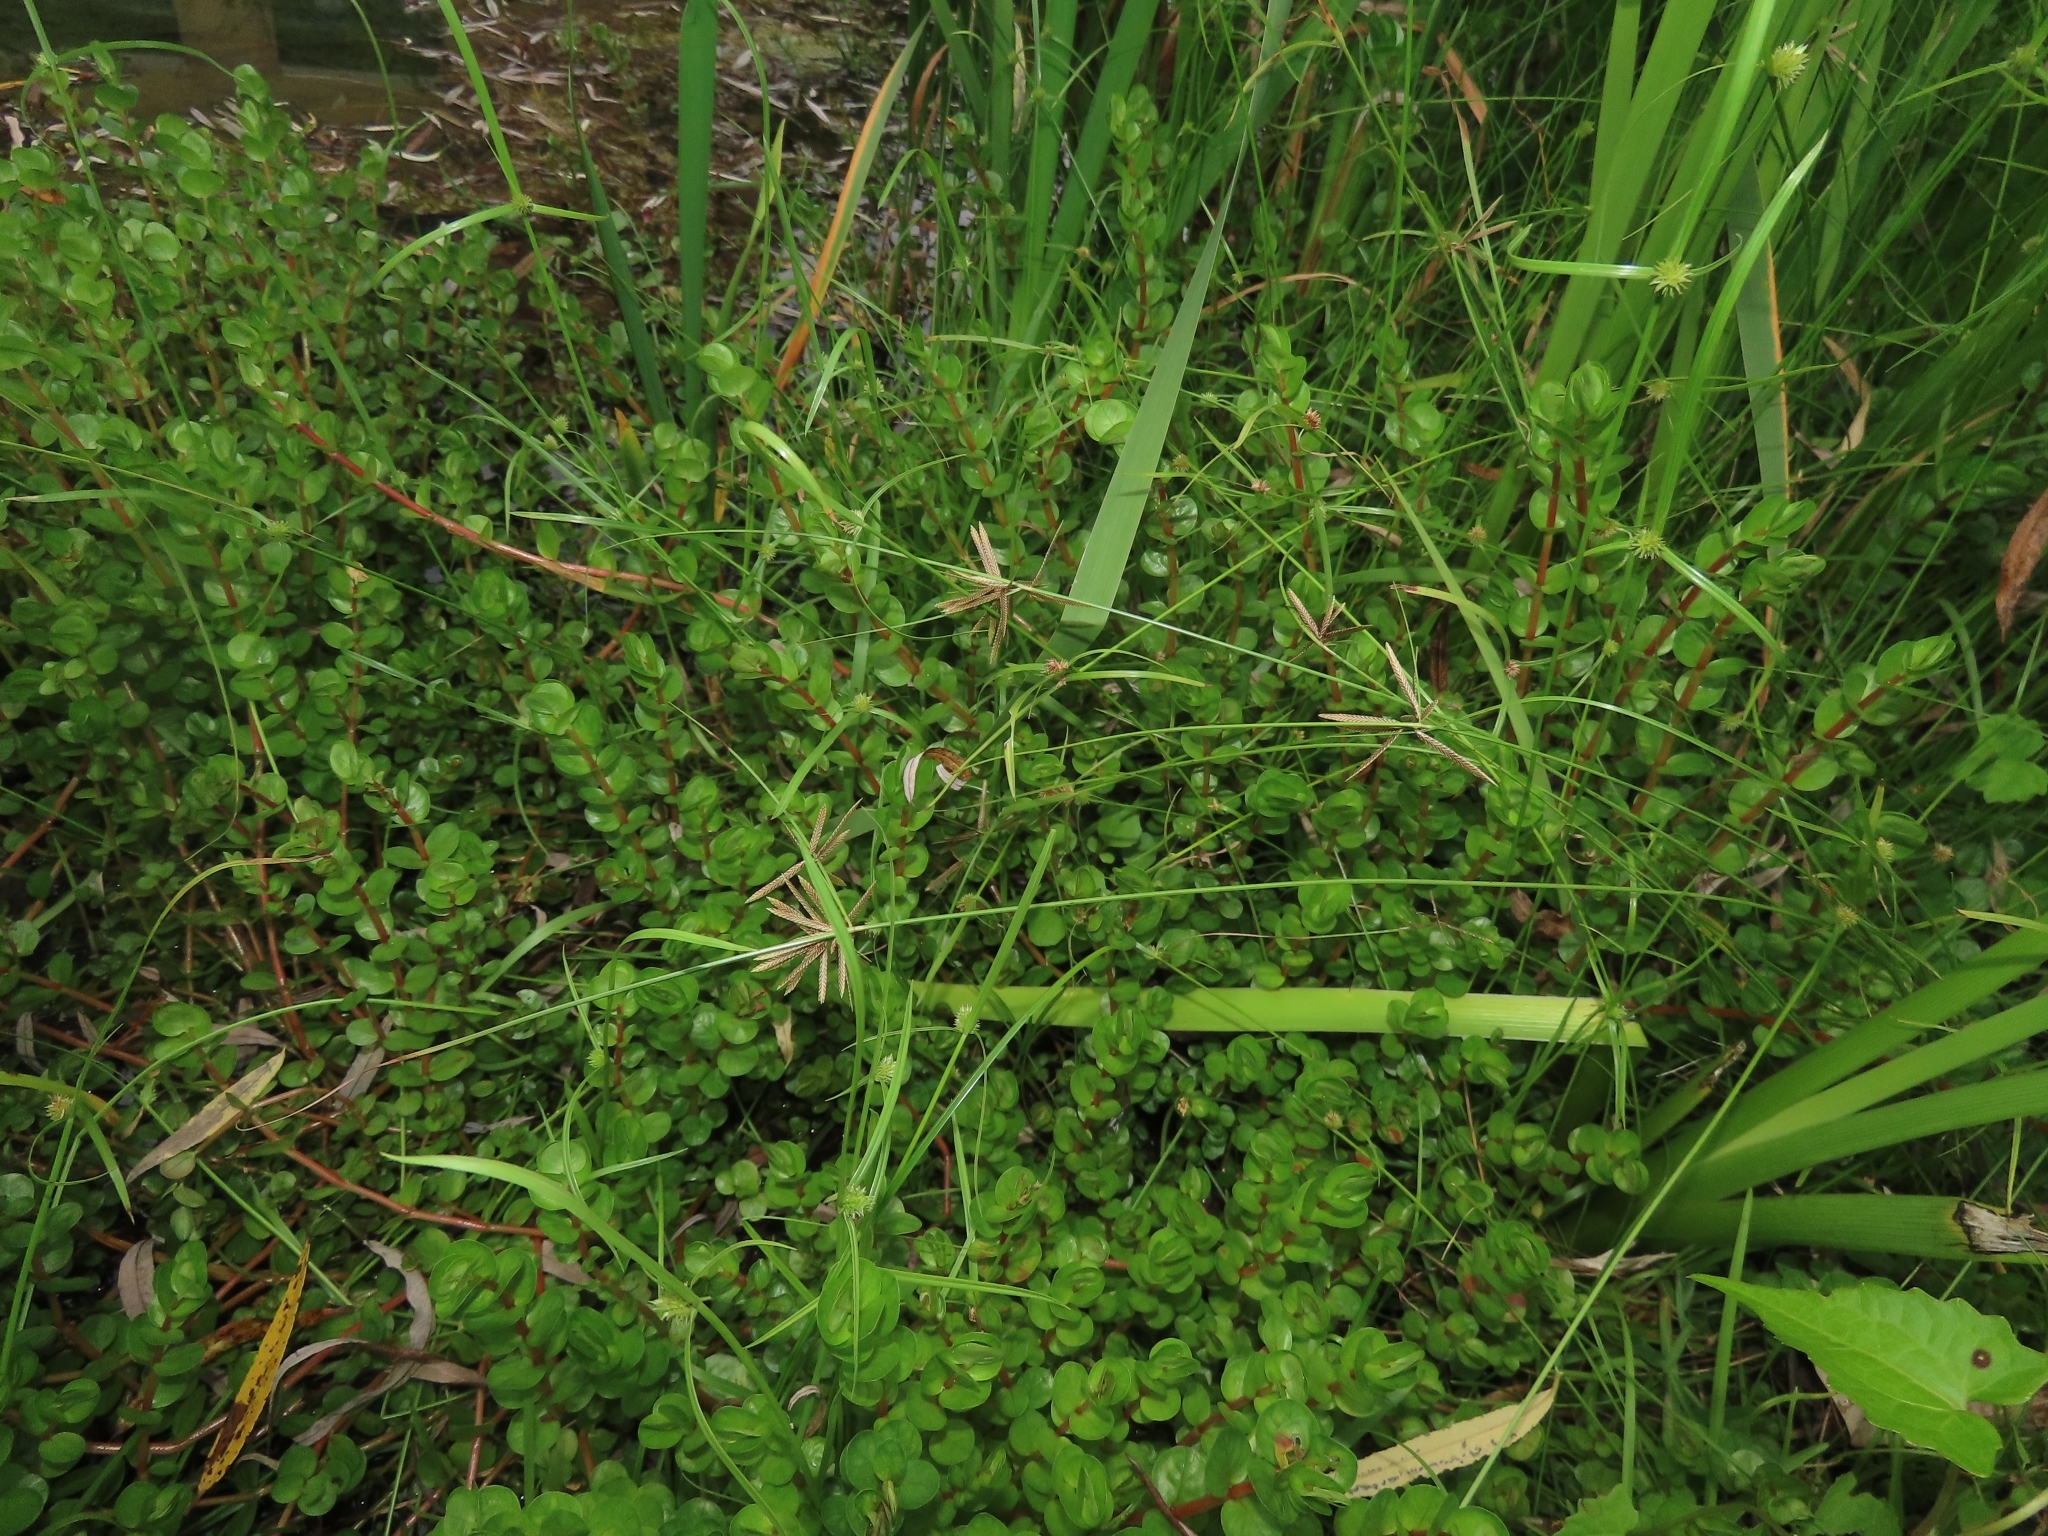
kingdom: Plantae
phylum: Tracheophyta
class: Liliopsida
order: Poales
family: Cyperaceae
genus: Cyperus
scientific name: Cyperus flavidus
